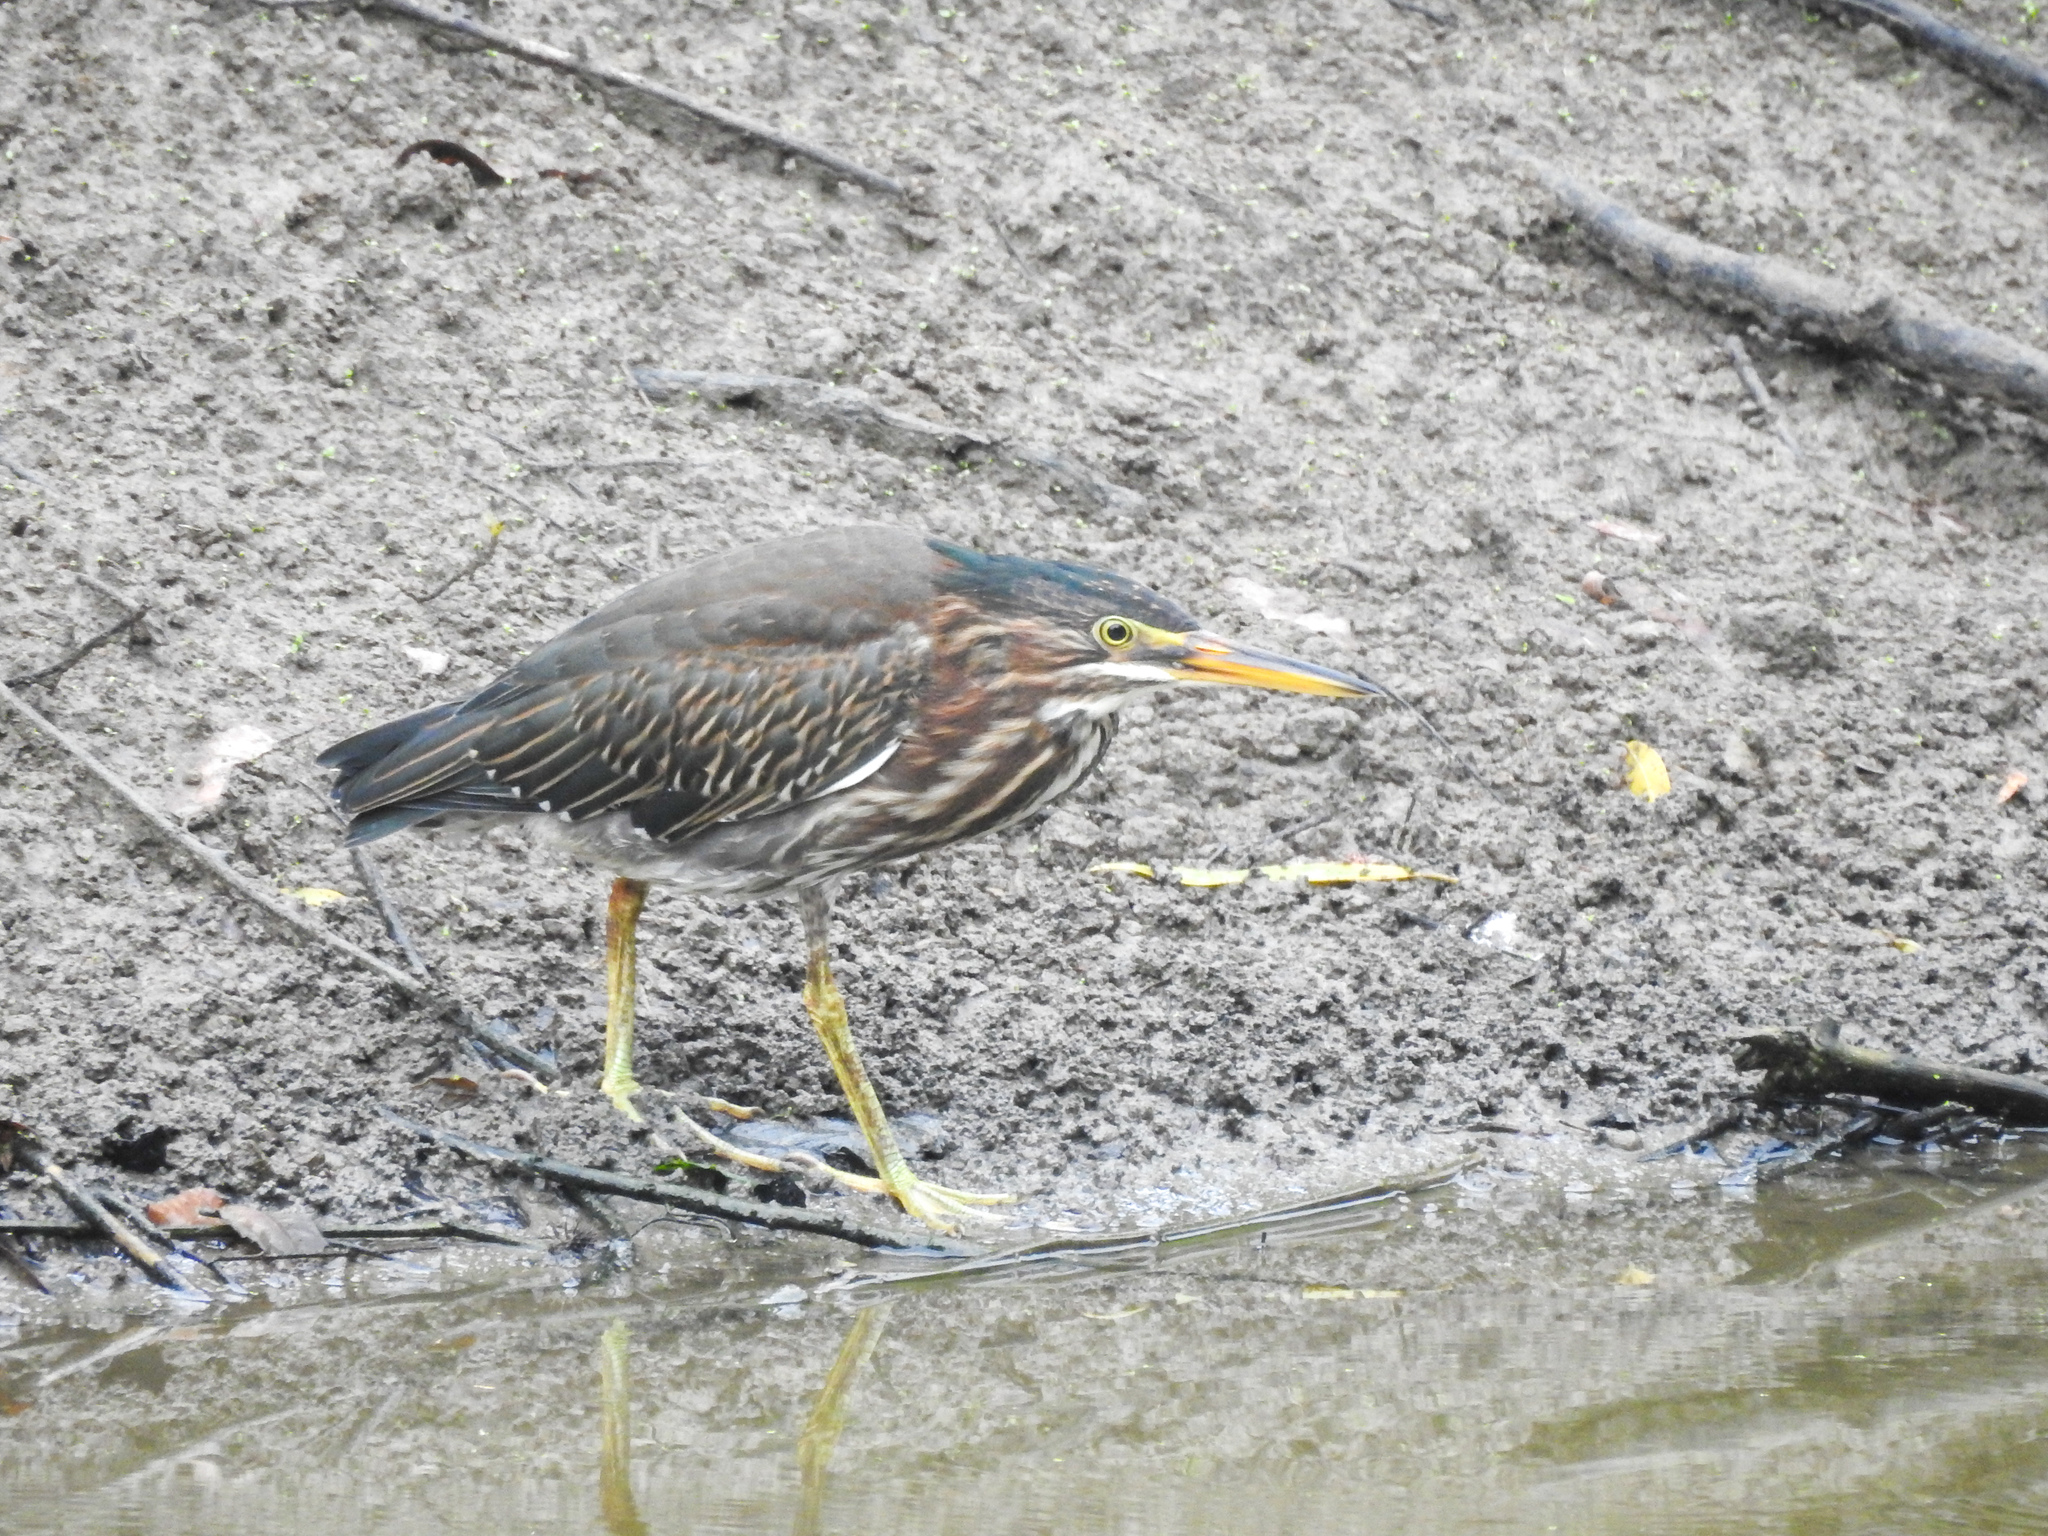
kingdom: Animalia
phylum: Chordata
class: Aves
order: Pelecaniformes
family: Ardeidae
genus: Butorides
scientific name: Butorides virescens
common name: Green heron
